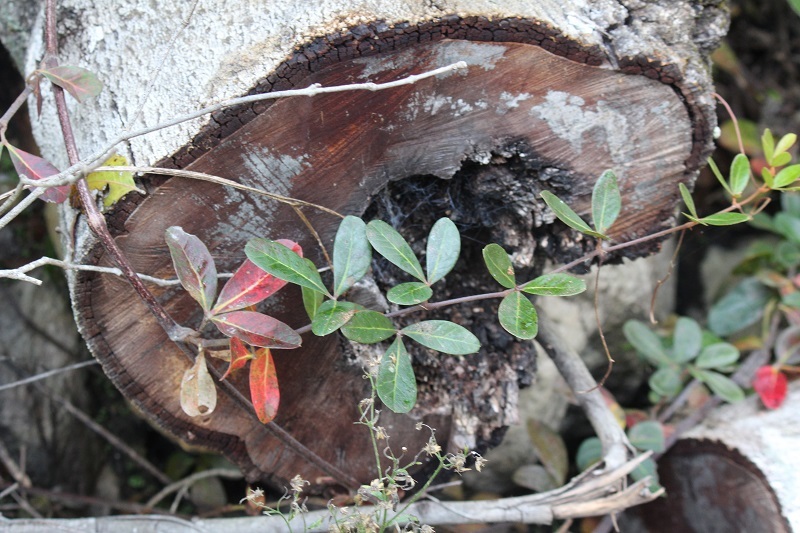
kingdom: Plantae
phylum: Tracheophyta
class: Magnoliopsida
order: Vitales
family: Vitaceae
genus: Rhoicissus
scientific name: Rhoicissus digitata
